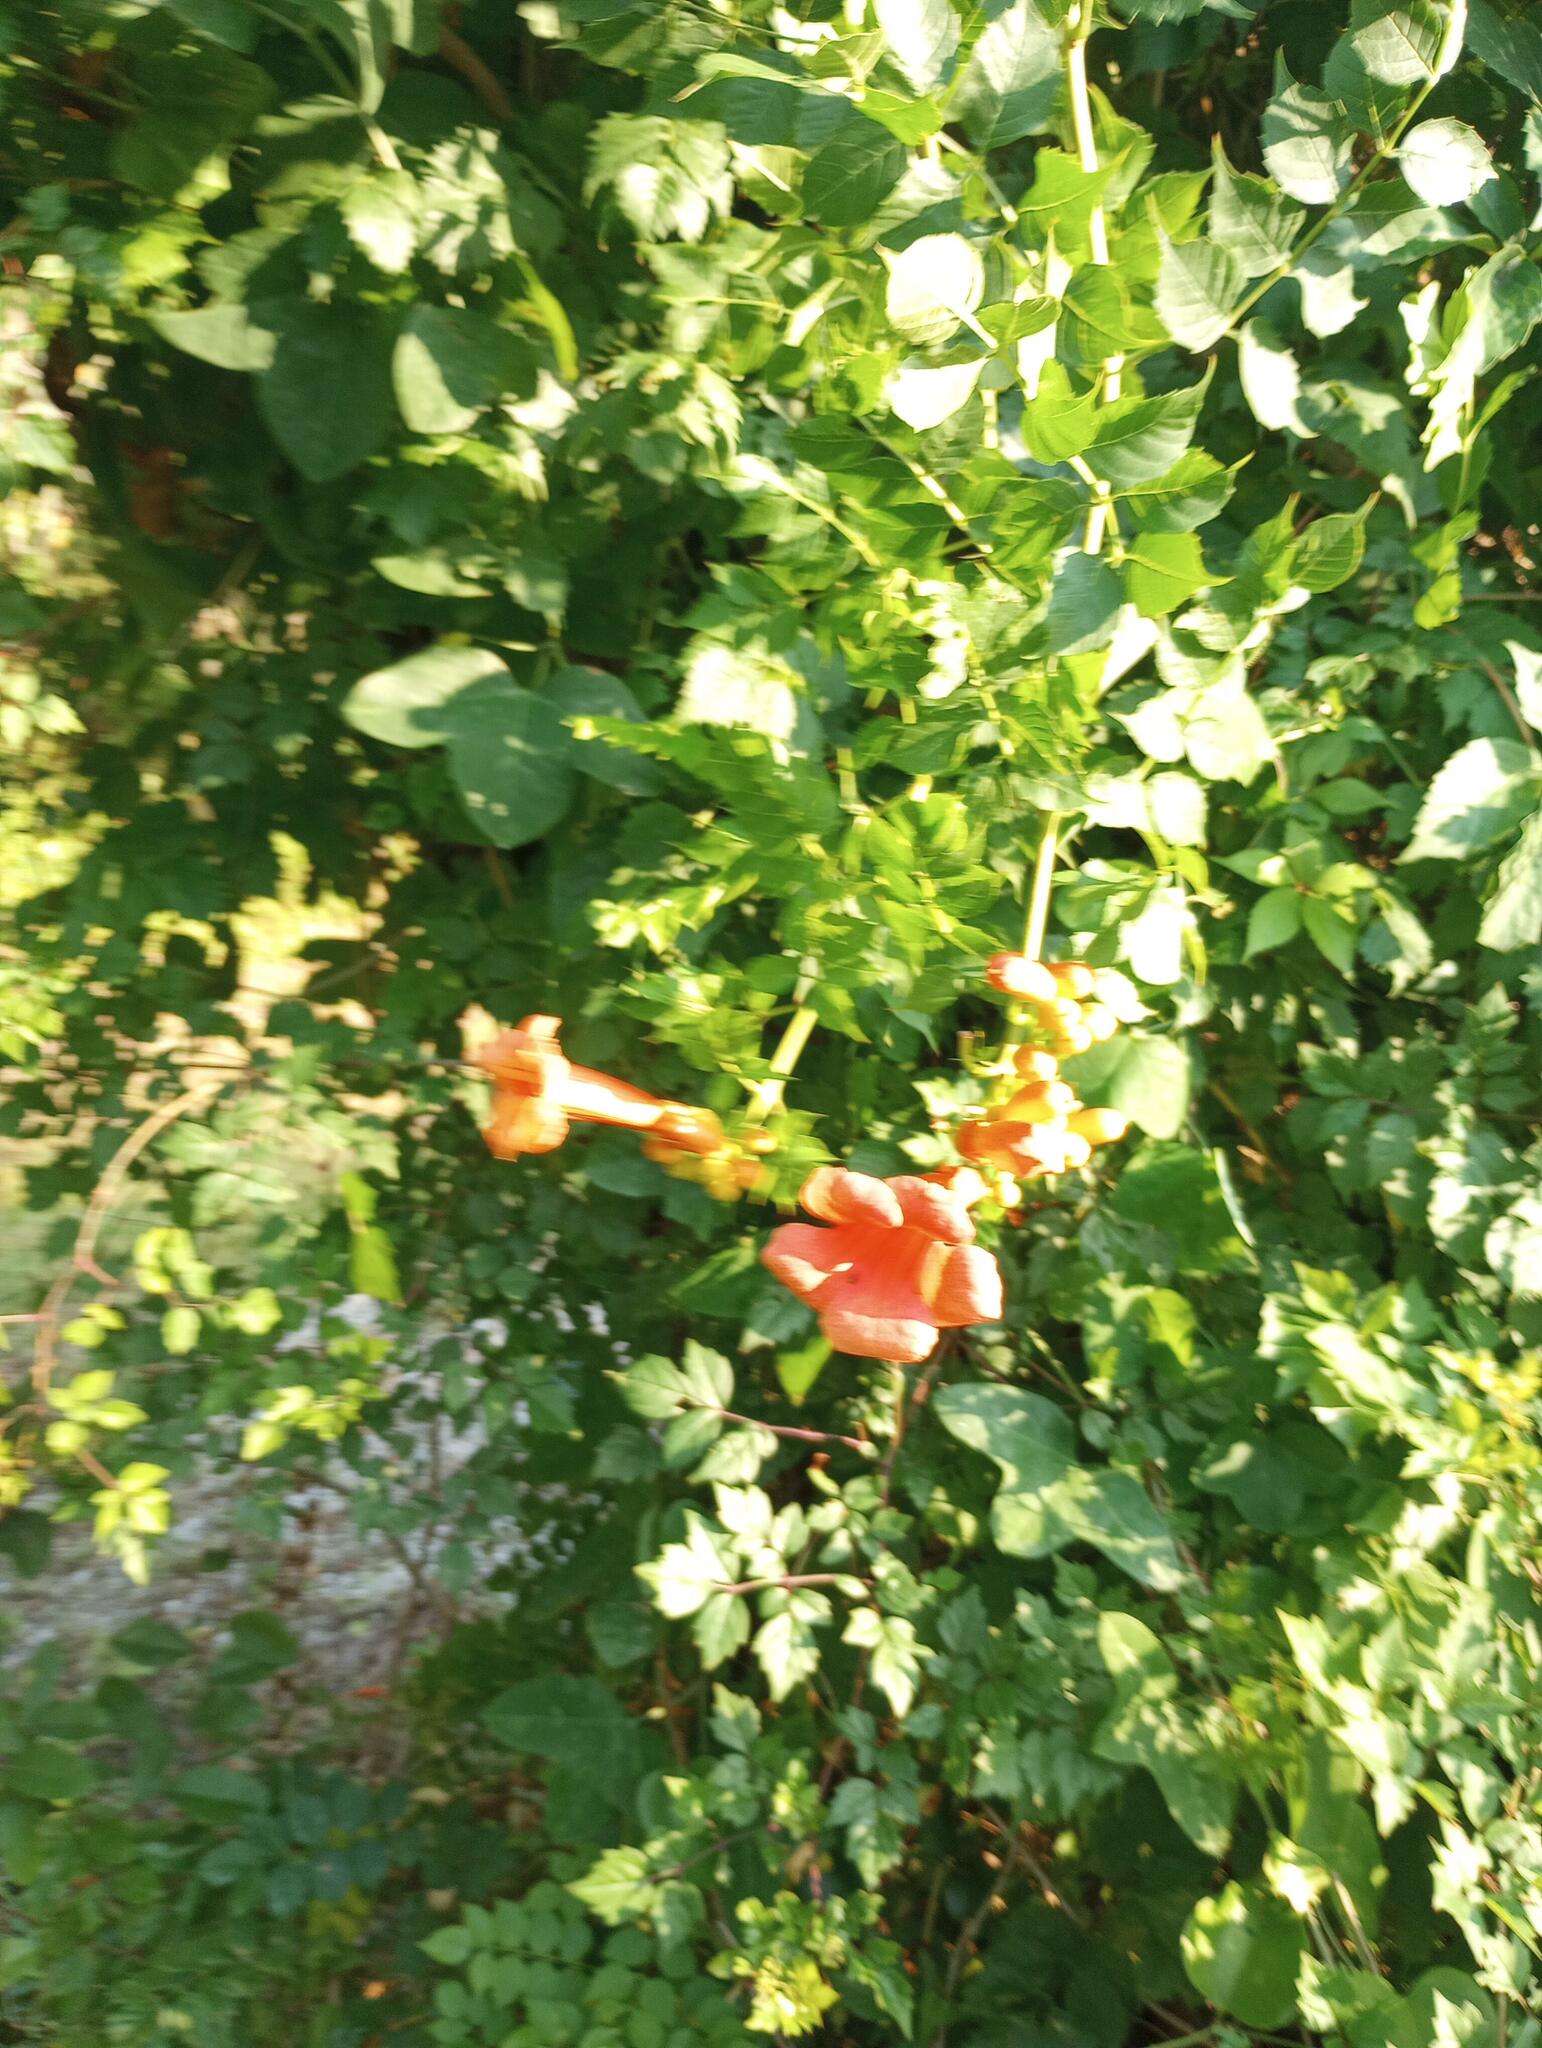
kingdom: Plantae
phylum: Tracheophyta
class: Magnoliopsida
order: Lamiales
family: Bignoniaceae
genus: Campsis
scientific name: Campsis radicans
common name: Trumpet-creeper
